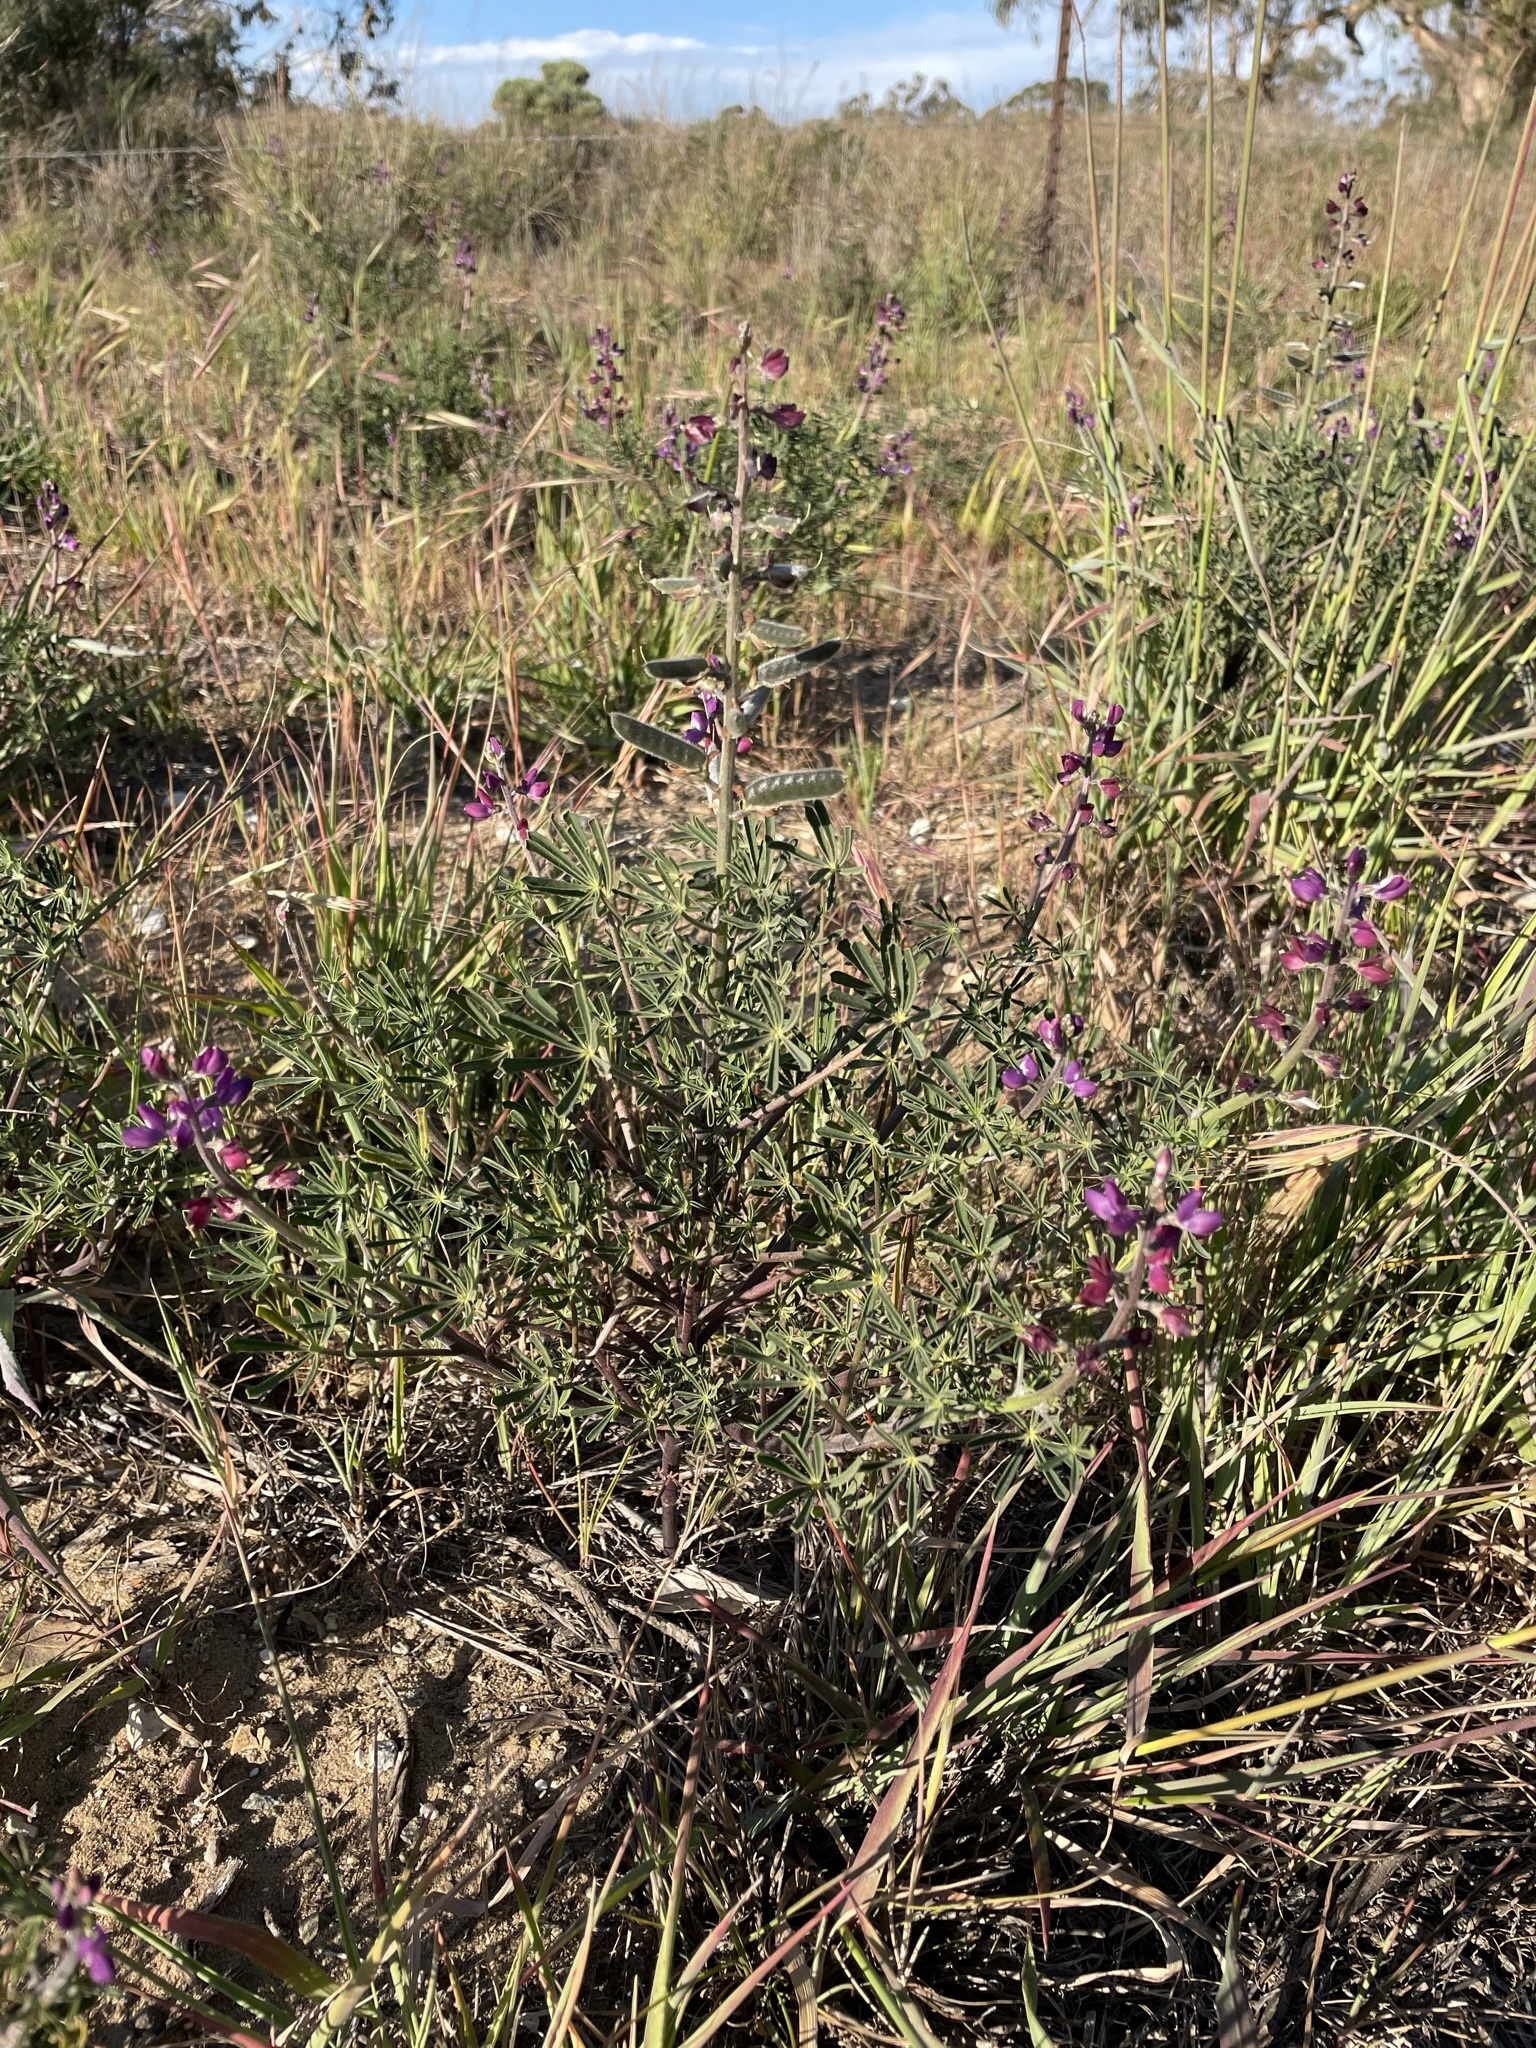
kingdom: Plantae
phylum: Tracheophyta
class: Magnoliopsida
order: Fabales
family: Fabaceae
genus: Lupinus
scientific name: Lupinus truncatus
